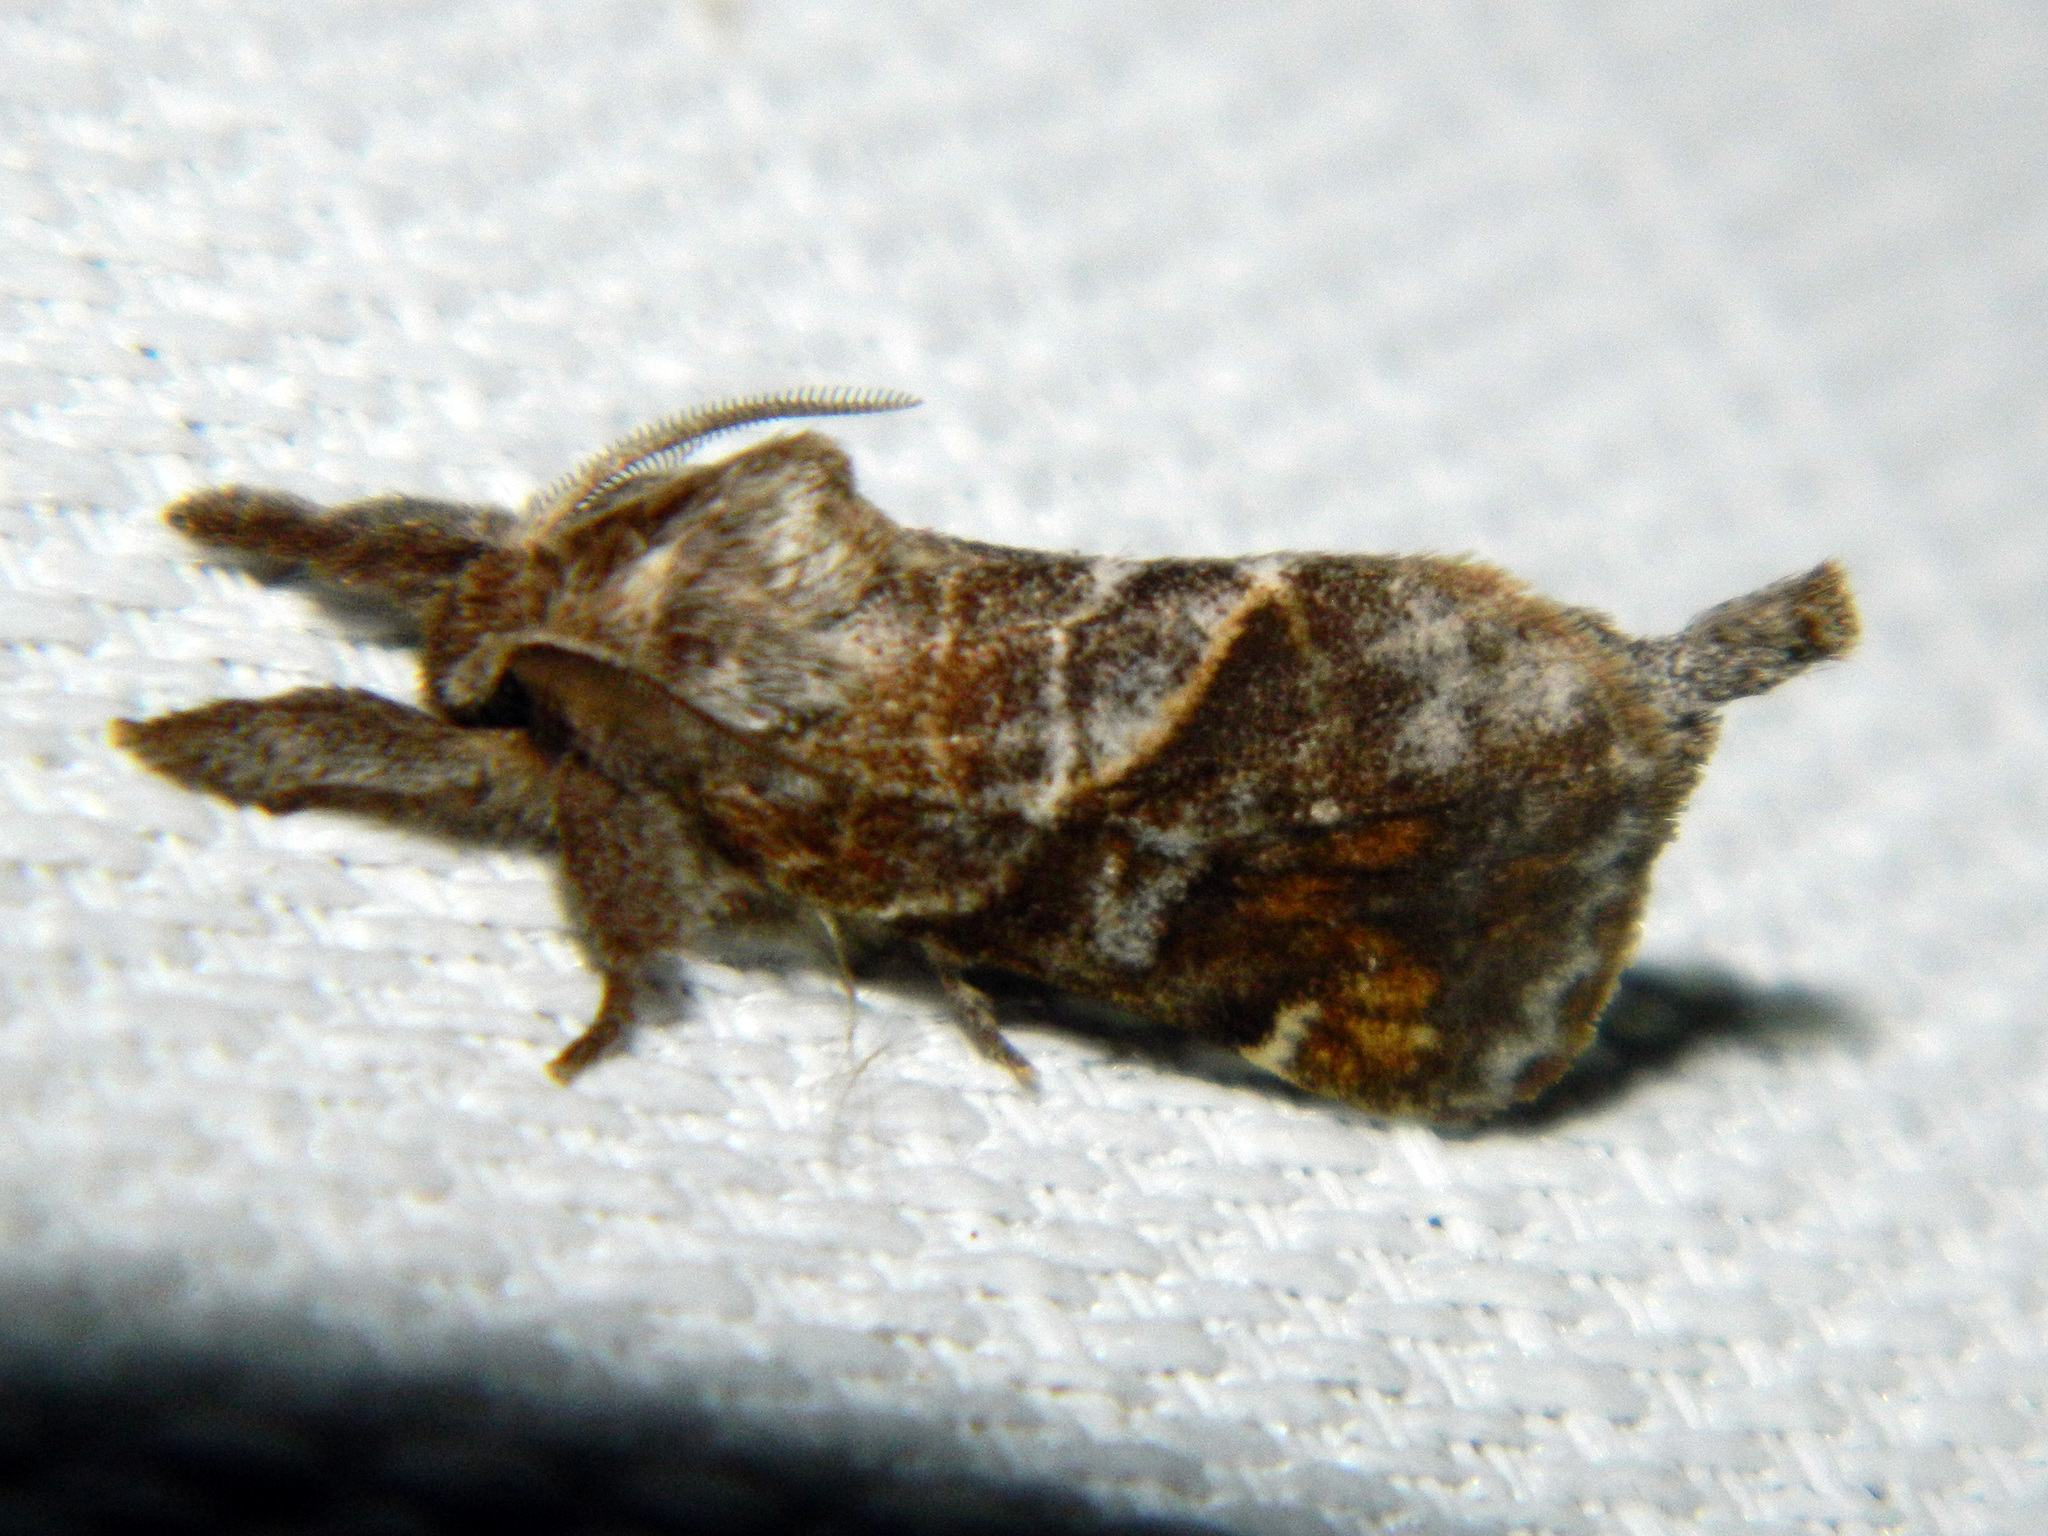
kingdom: Animalia
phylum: Arthropoda
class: Insecta
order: Lepidoptera
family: Notodontidae
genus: Clostera
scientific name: Clostera strigosa
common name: Striped chocolate-tip moth
